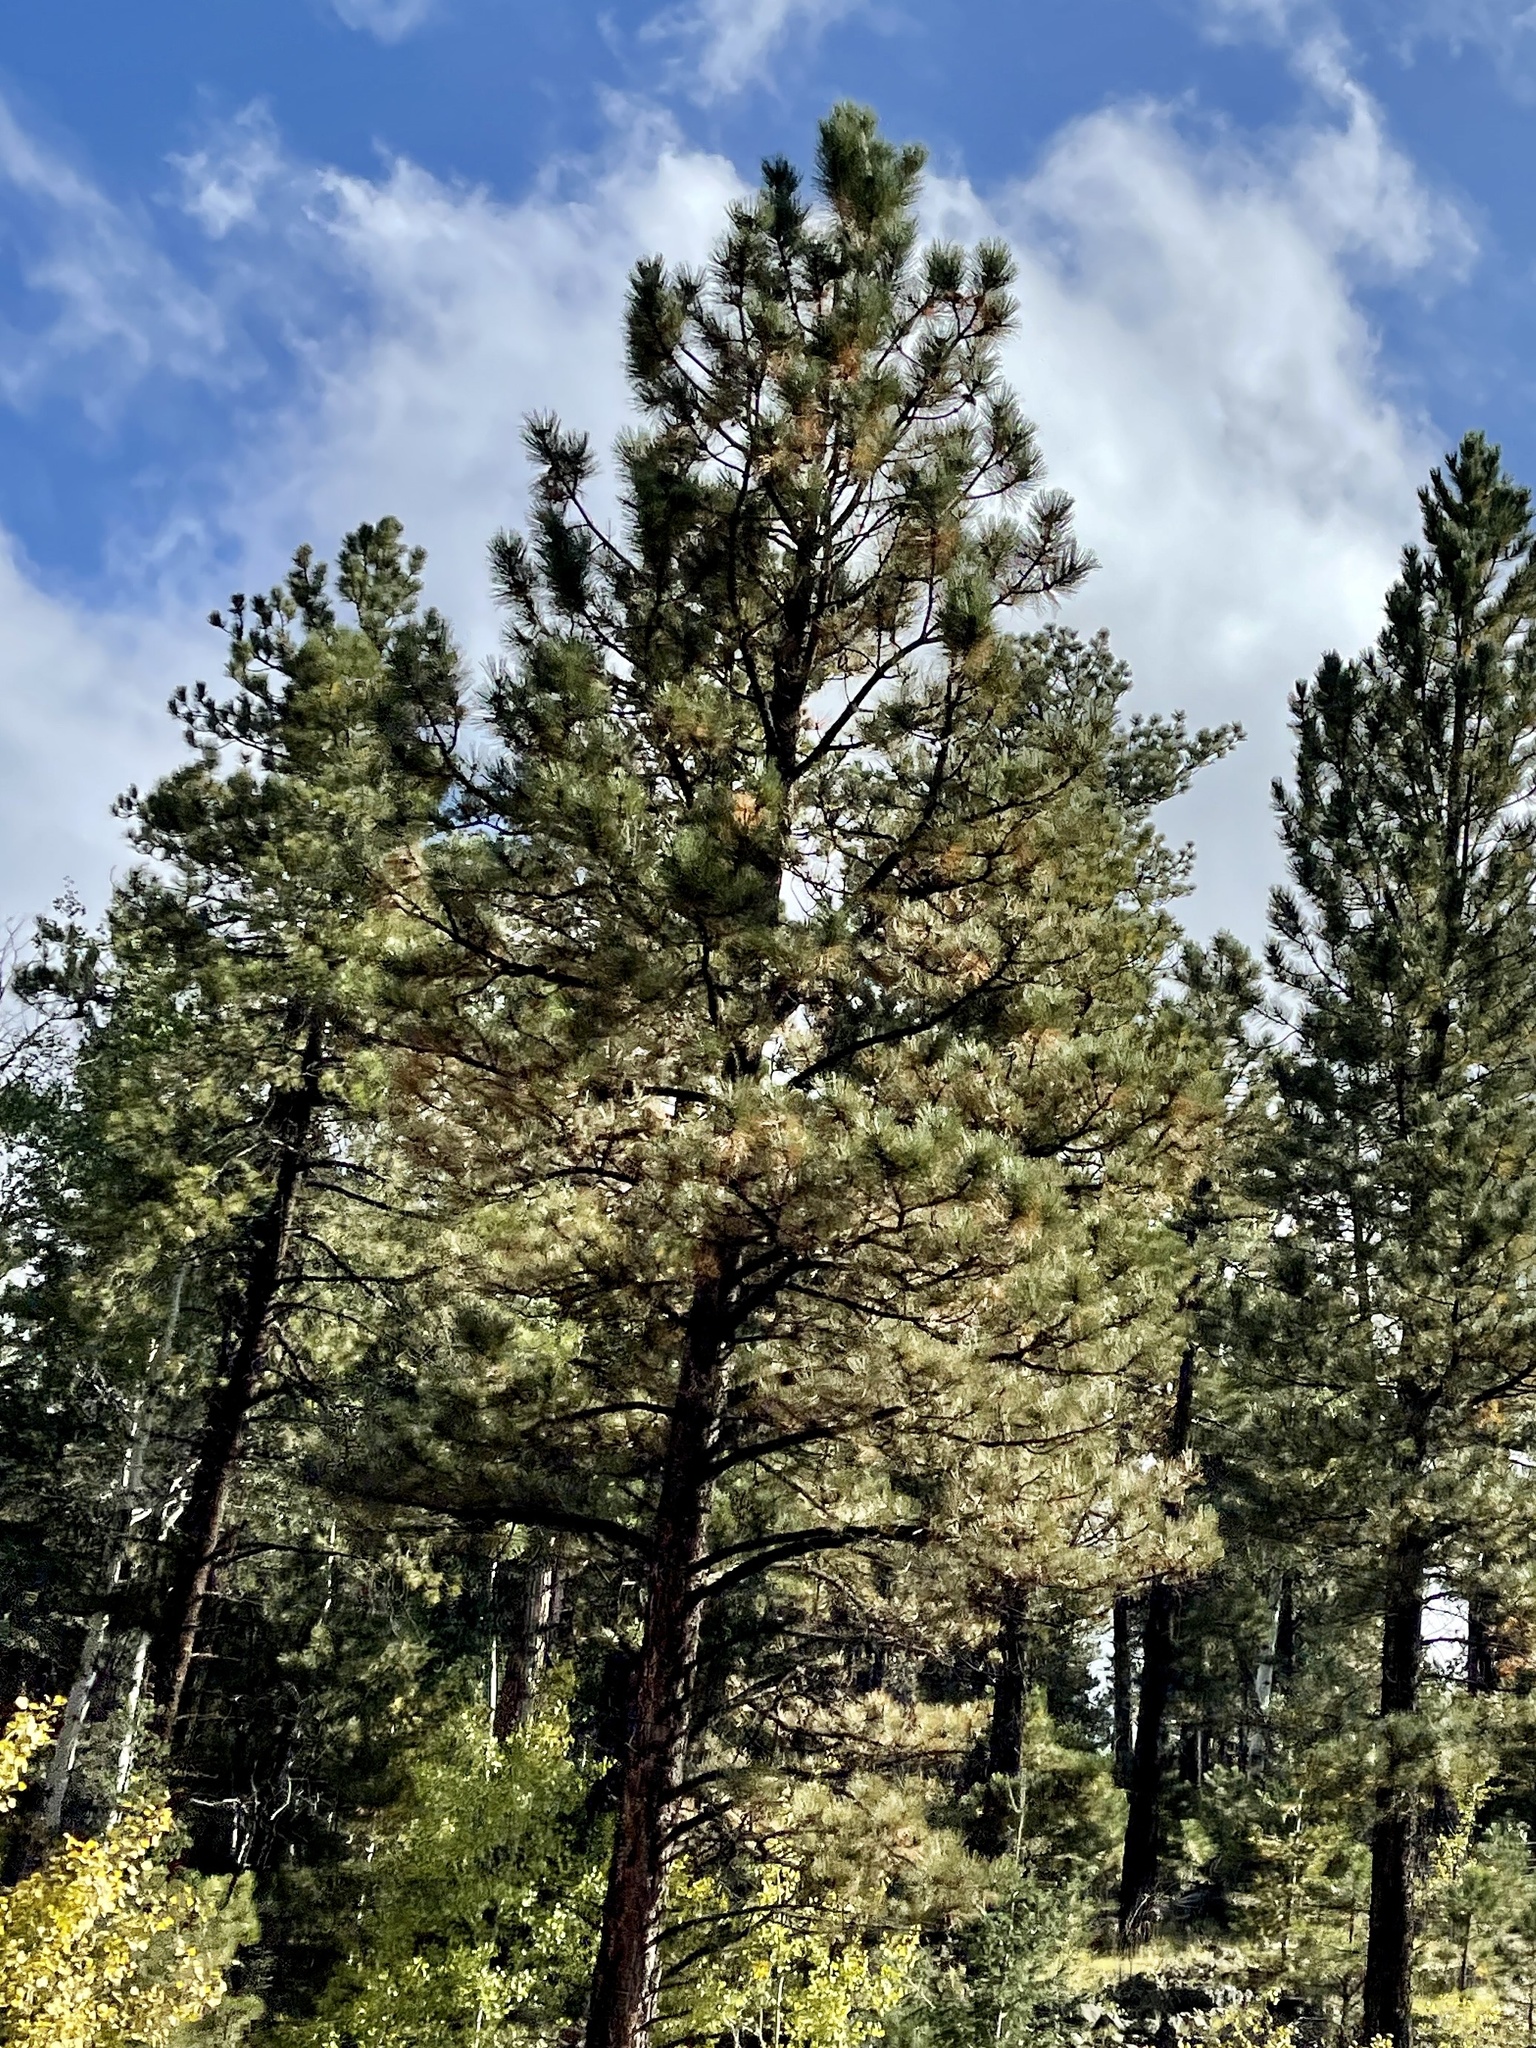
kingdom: Plantae
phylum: Tracheophyta
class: Pinopsida
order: Pinales
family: Pinaceae
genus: Pinus
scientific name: Pinus ponderosa
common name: Western yellow-pine
